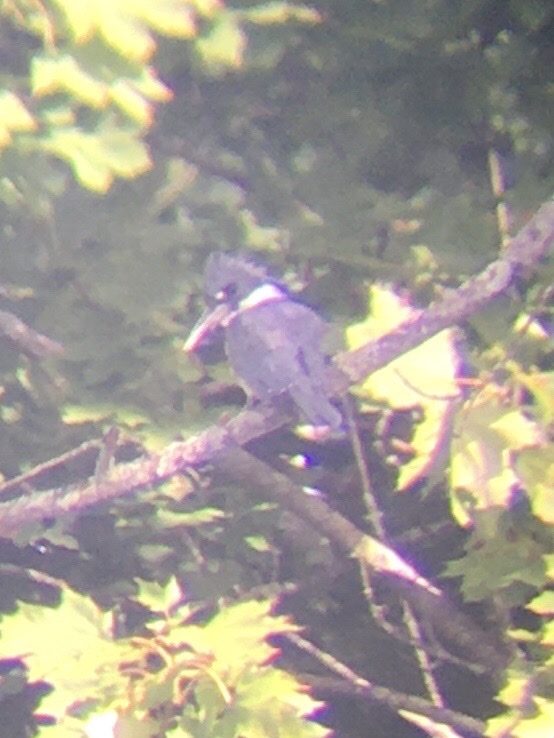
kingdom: Animalia
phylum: Chordata
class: Aves
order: Coraciiformes
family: Alcedinidae
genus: Megaceryle
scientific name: Megaceryle alcyon
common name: Belted kingfisher
